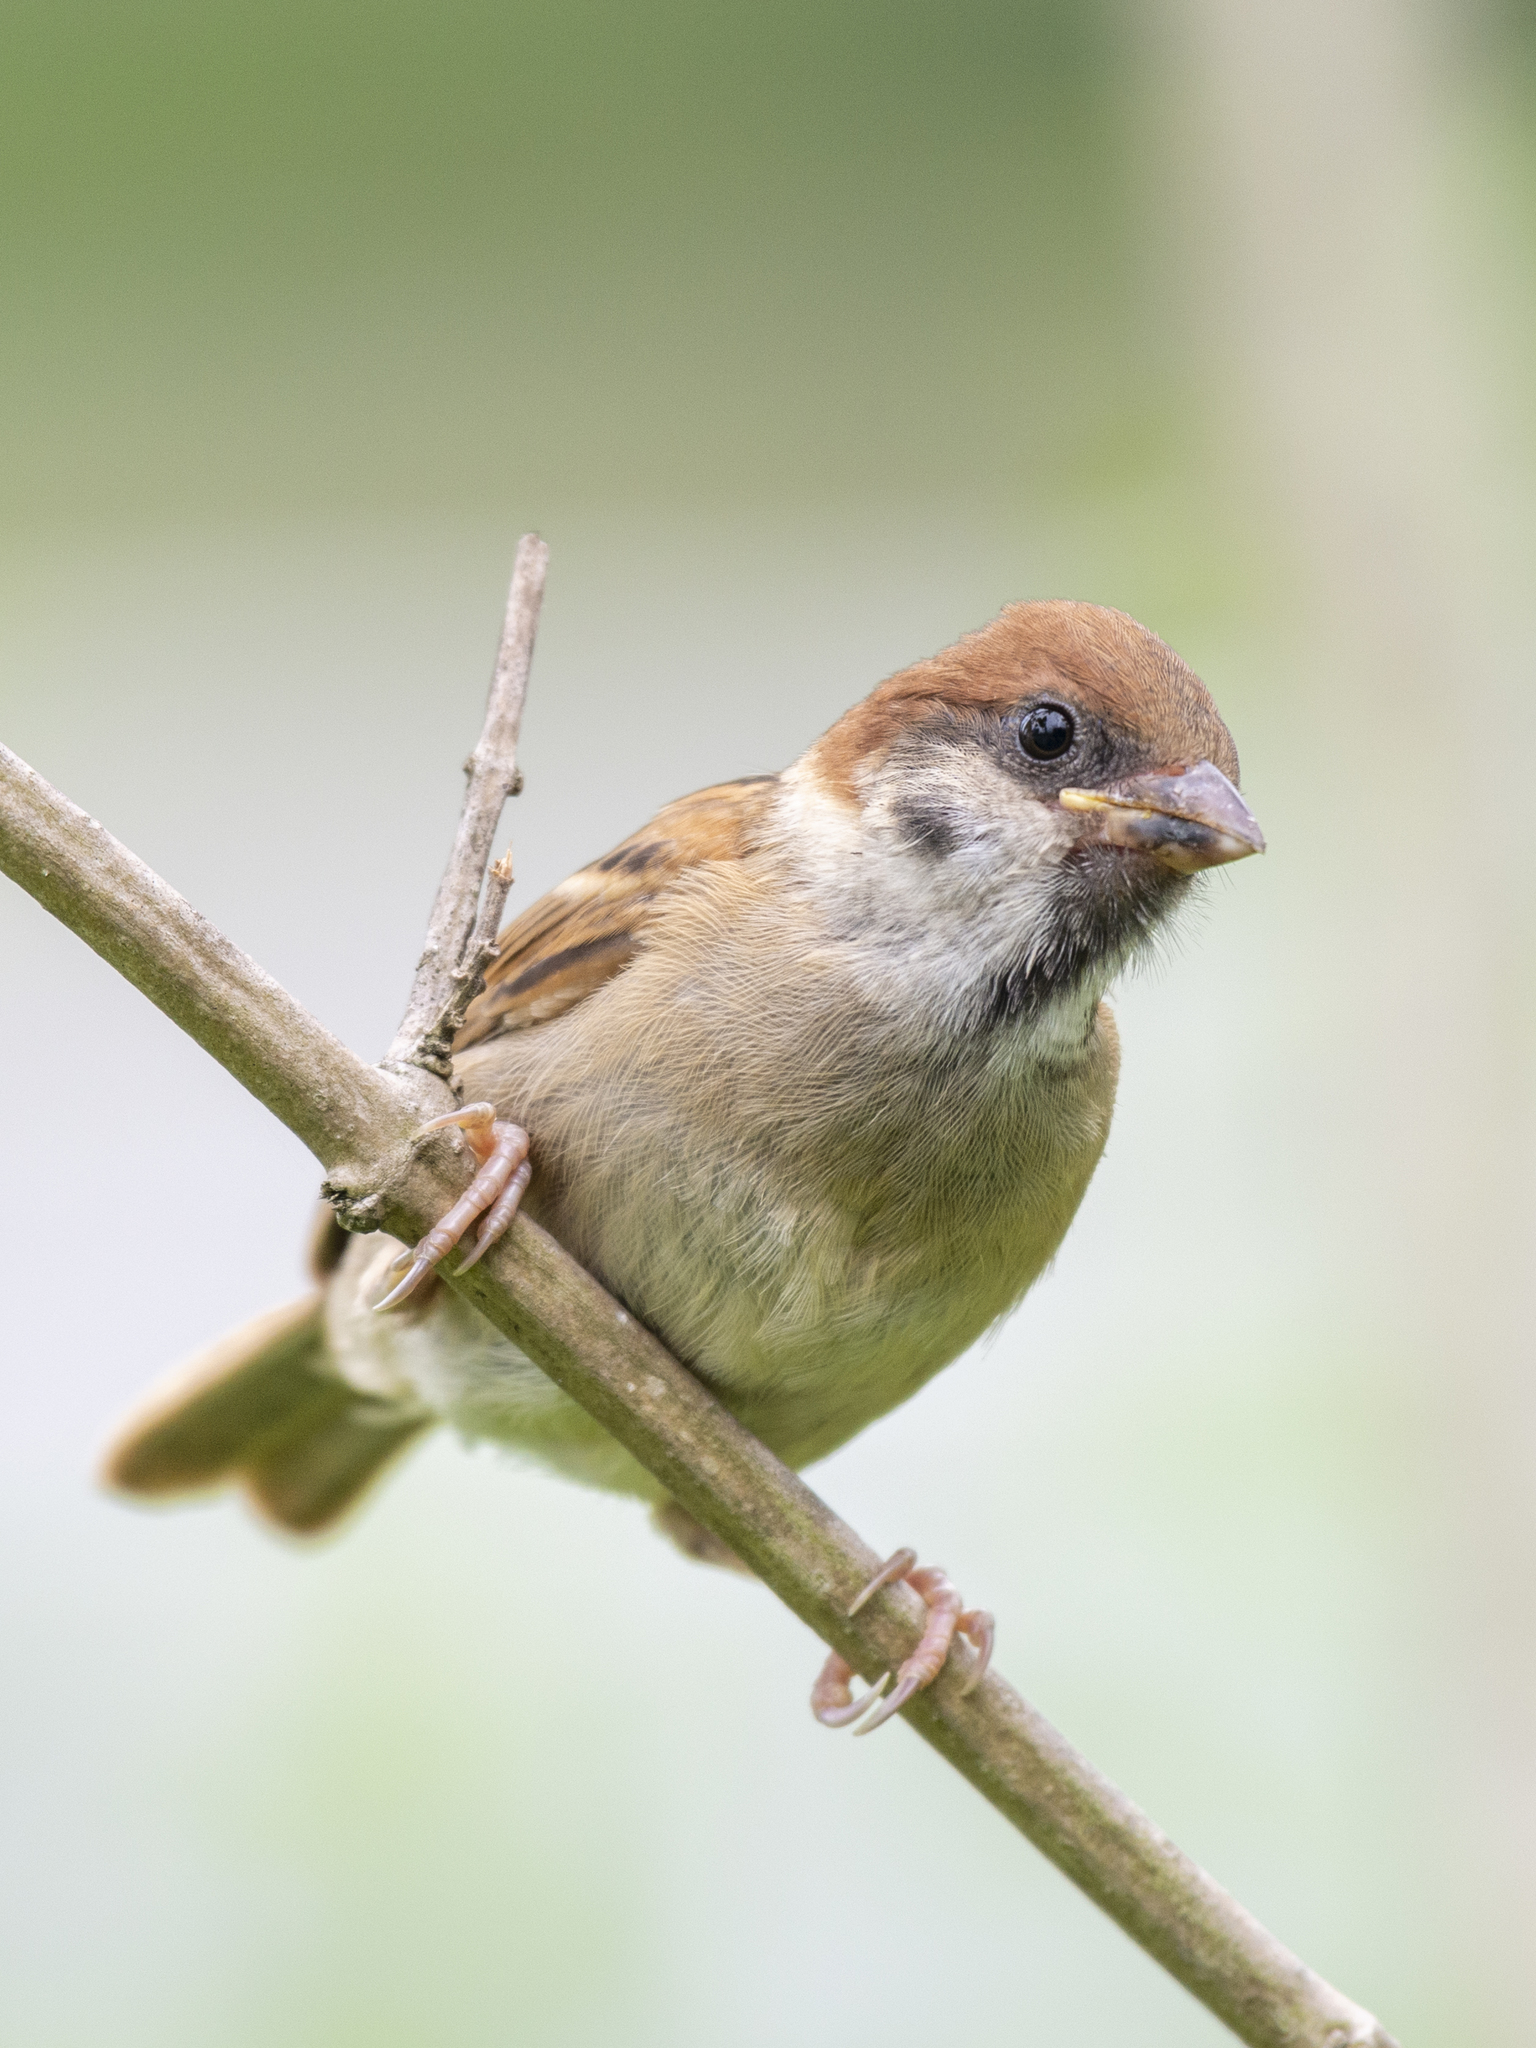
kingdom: Animalia
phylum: Chordata
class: Aves
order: Passeriformes
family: Passeridae
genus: Passer
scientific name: Passer montanus
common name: Eurasian tree sparrow
